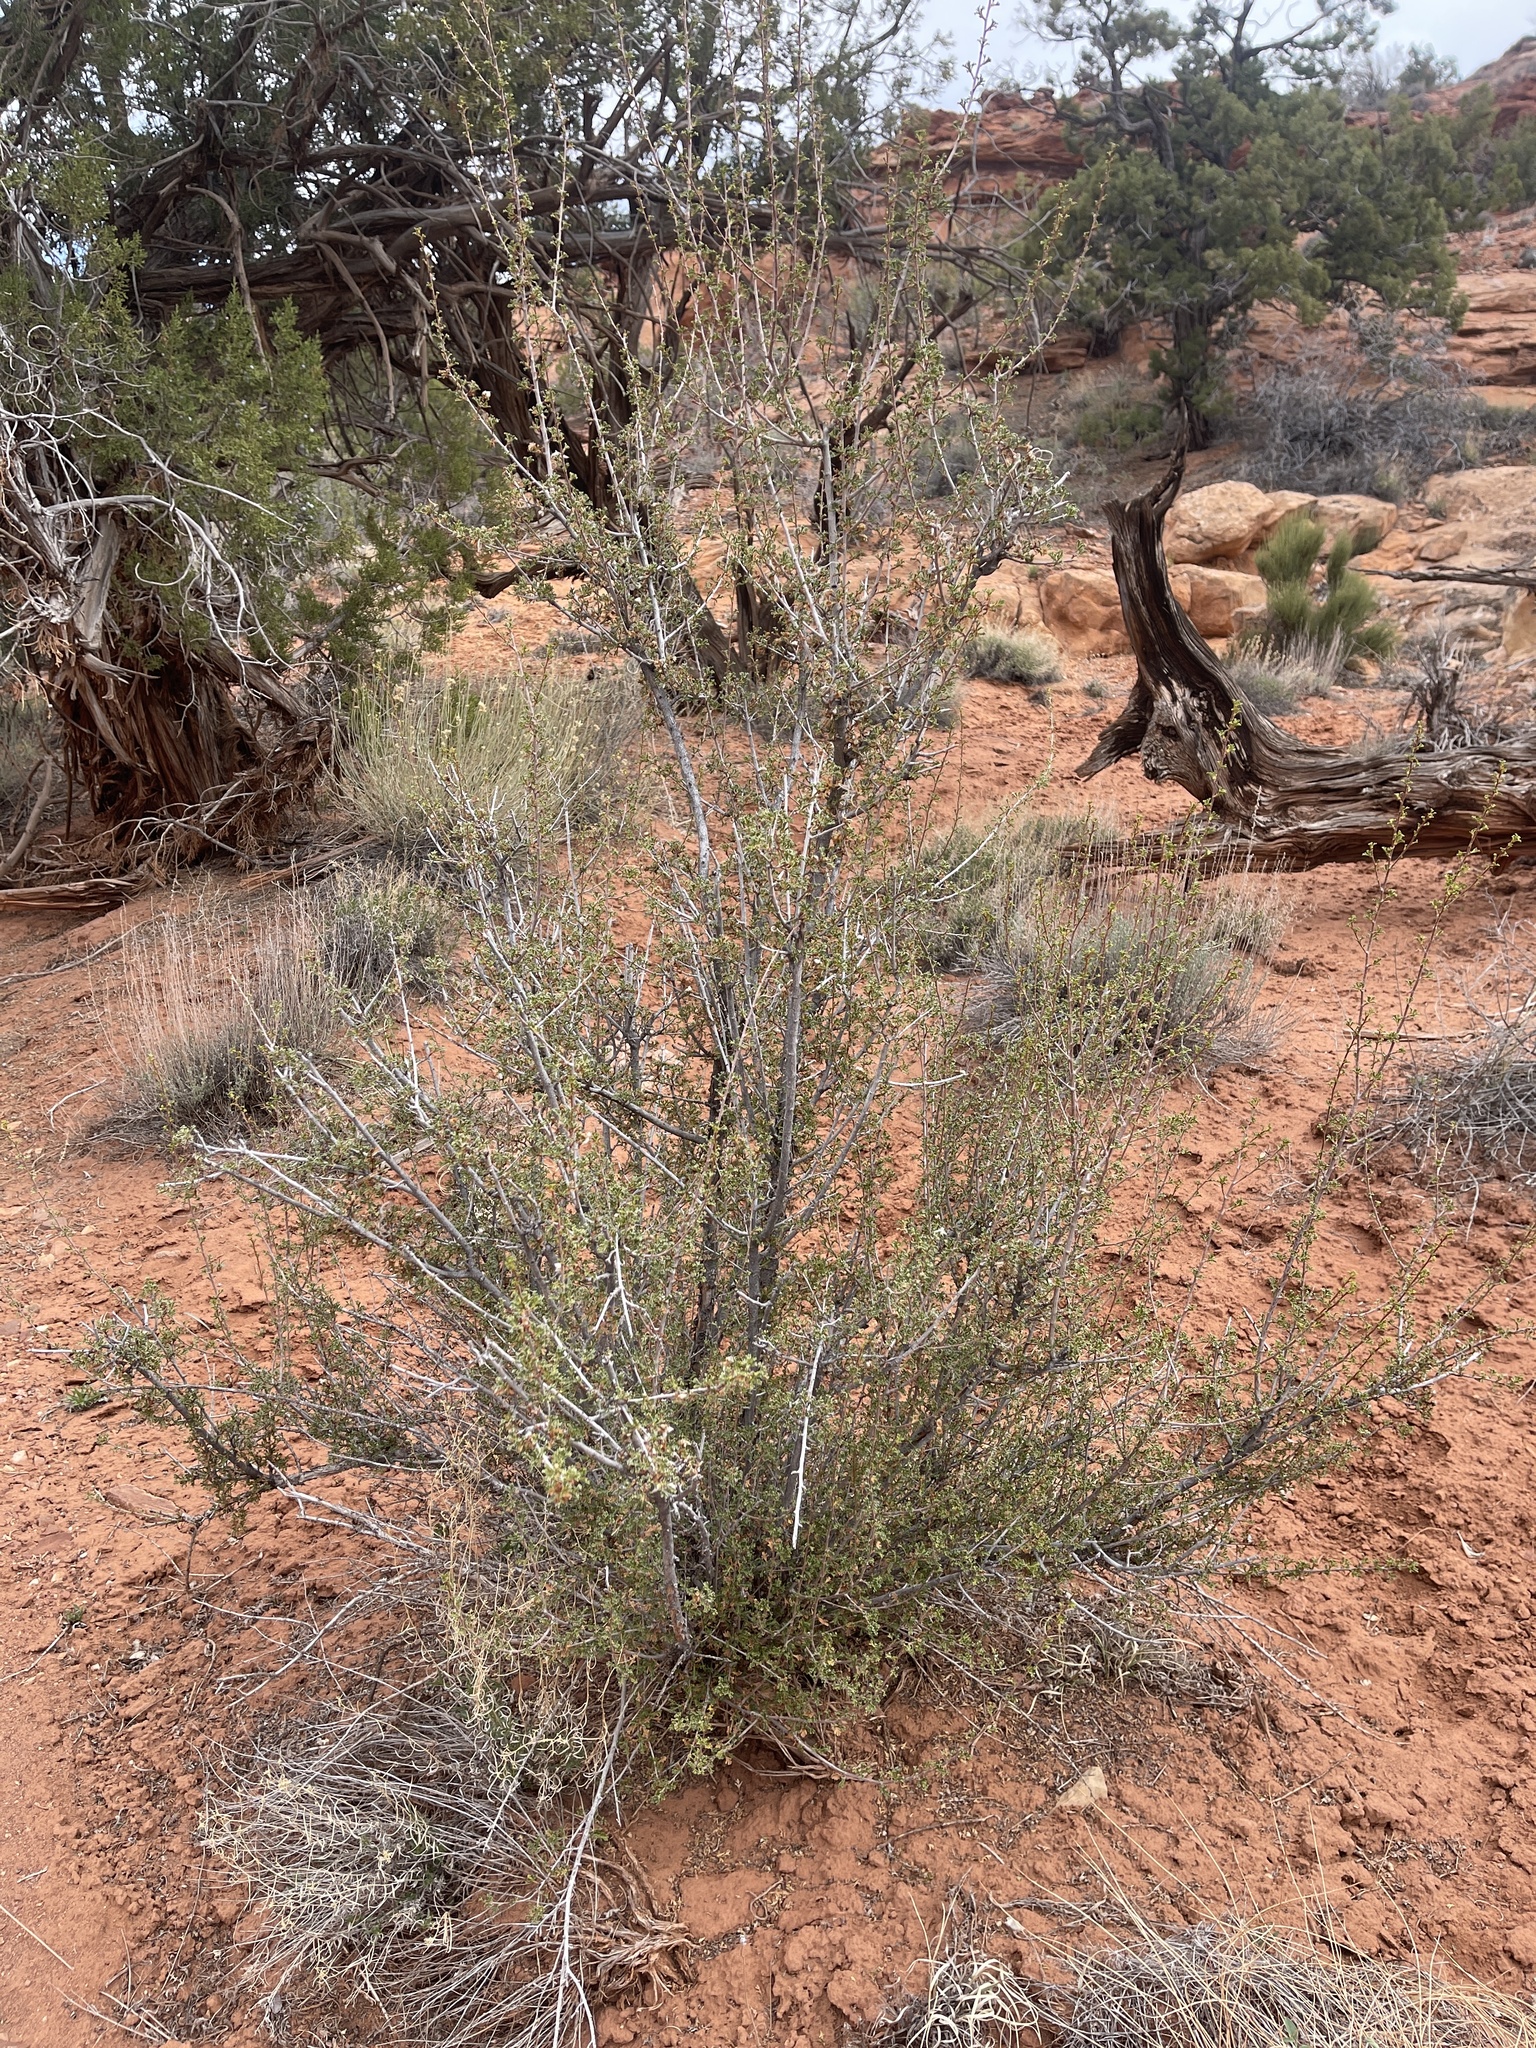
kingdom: Plantae
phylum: Tracheophyta
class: Magnoliopsida
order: Rosales
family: Rosaceae
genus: Purshia
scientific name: Purshia stansburiana
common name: Stansbury's cliffrose
